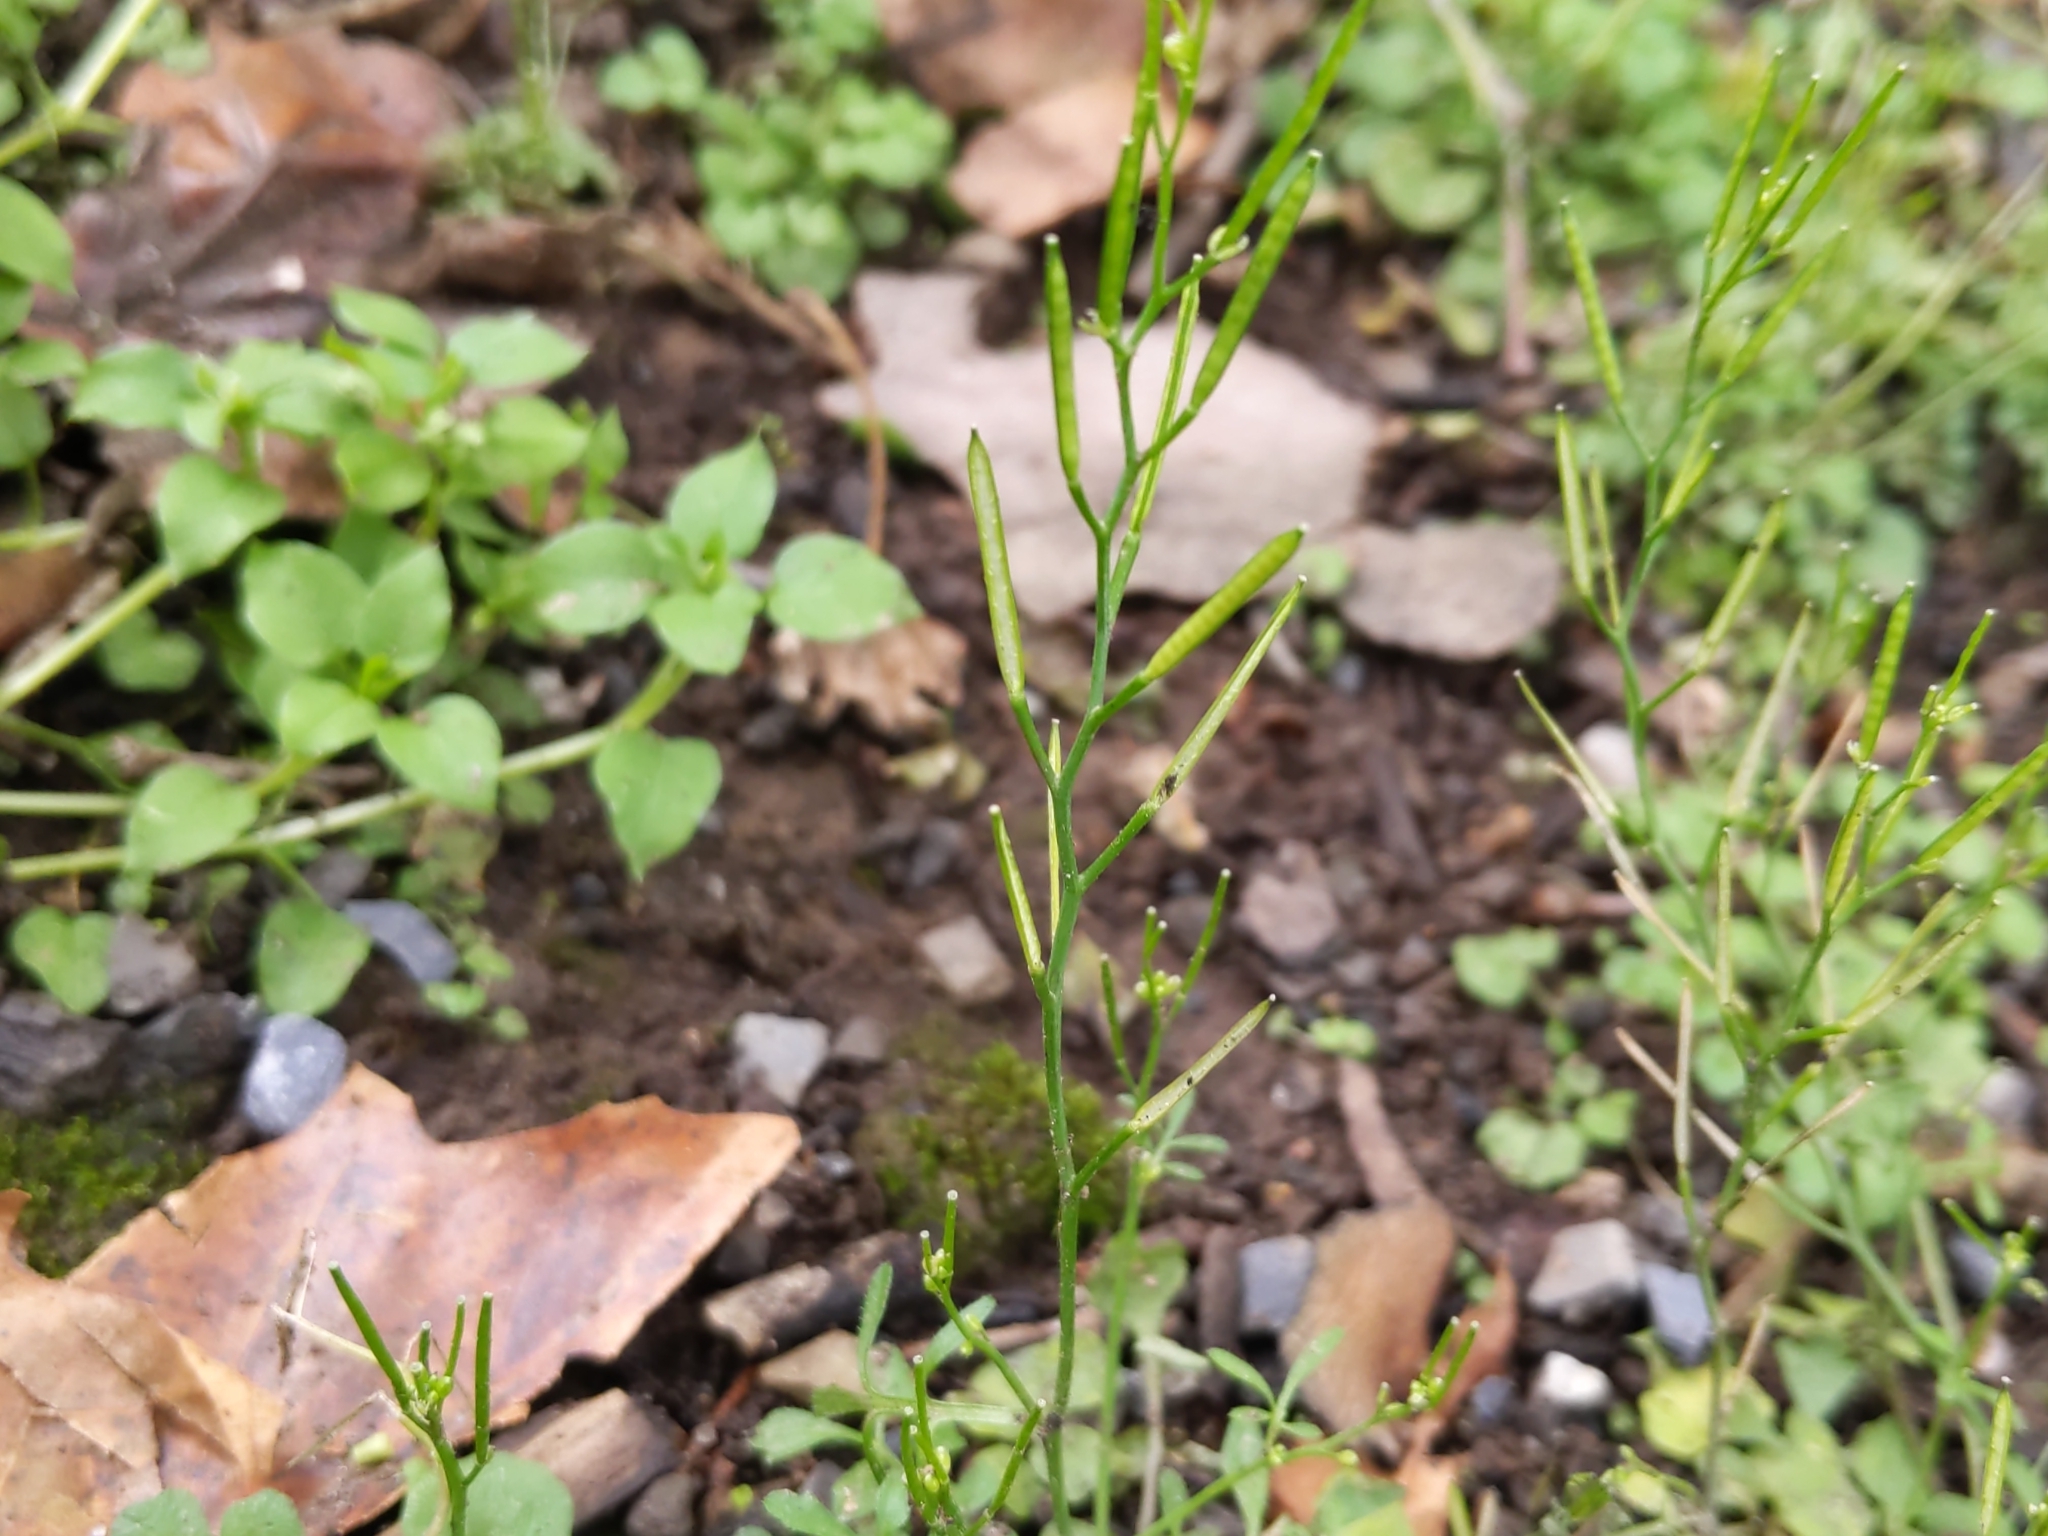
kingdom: Plantae
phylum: Tracheophyta
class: Magnoliopsida
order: Brassicales
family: Brassicaceae
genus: Cardamine
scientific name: Cardamine hirsuta
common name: Hairy bittercress
